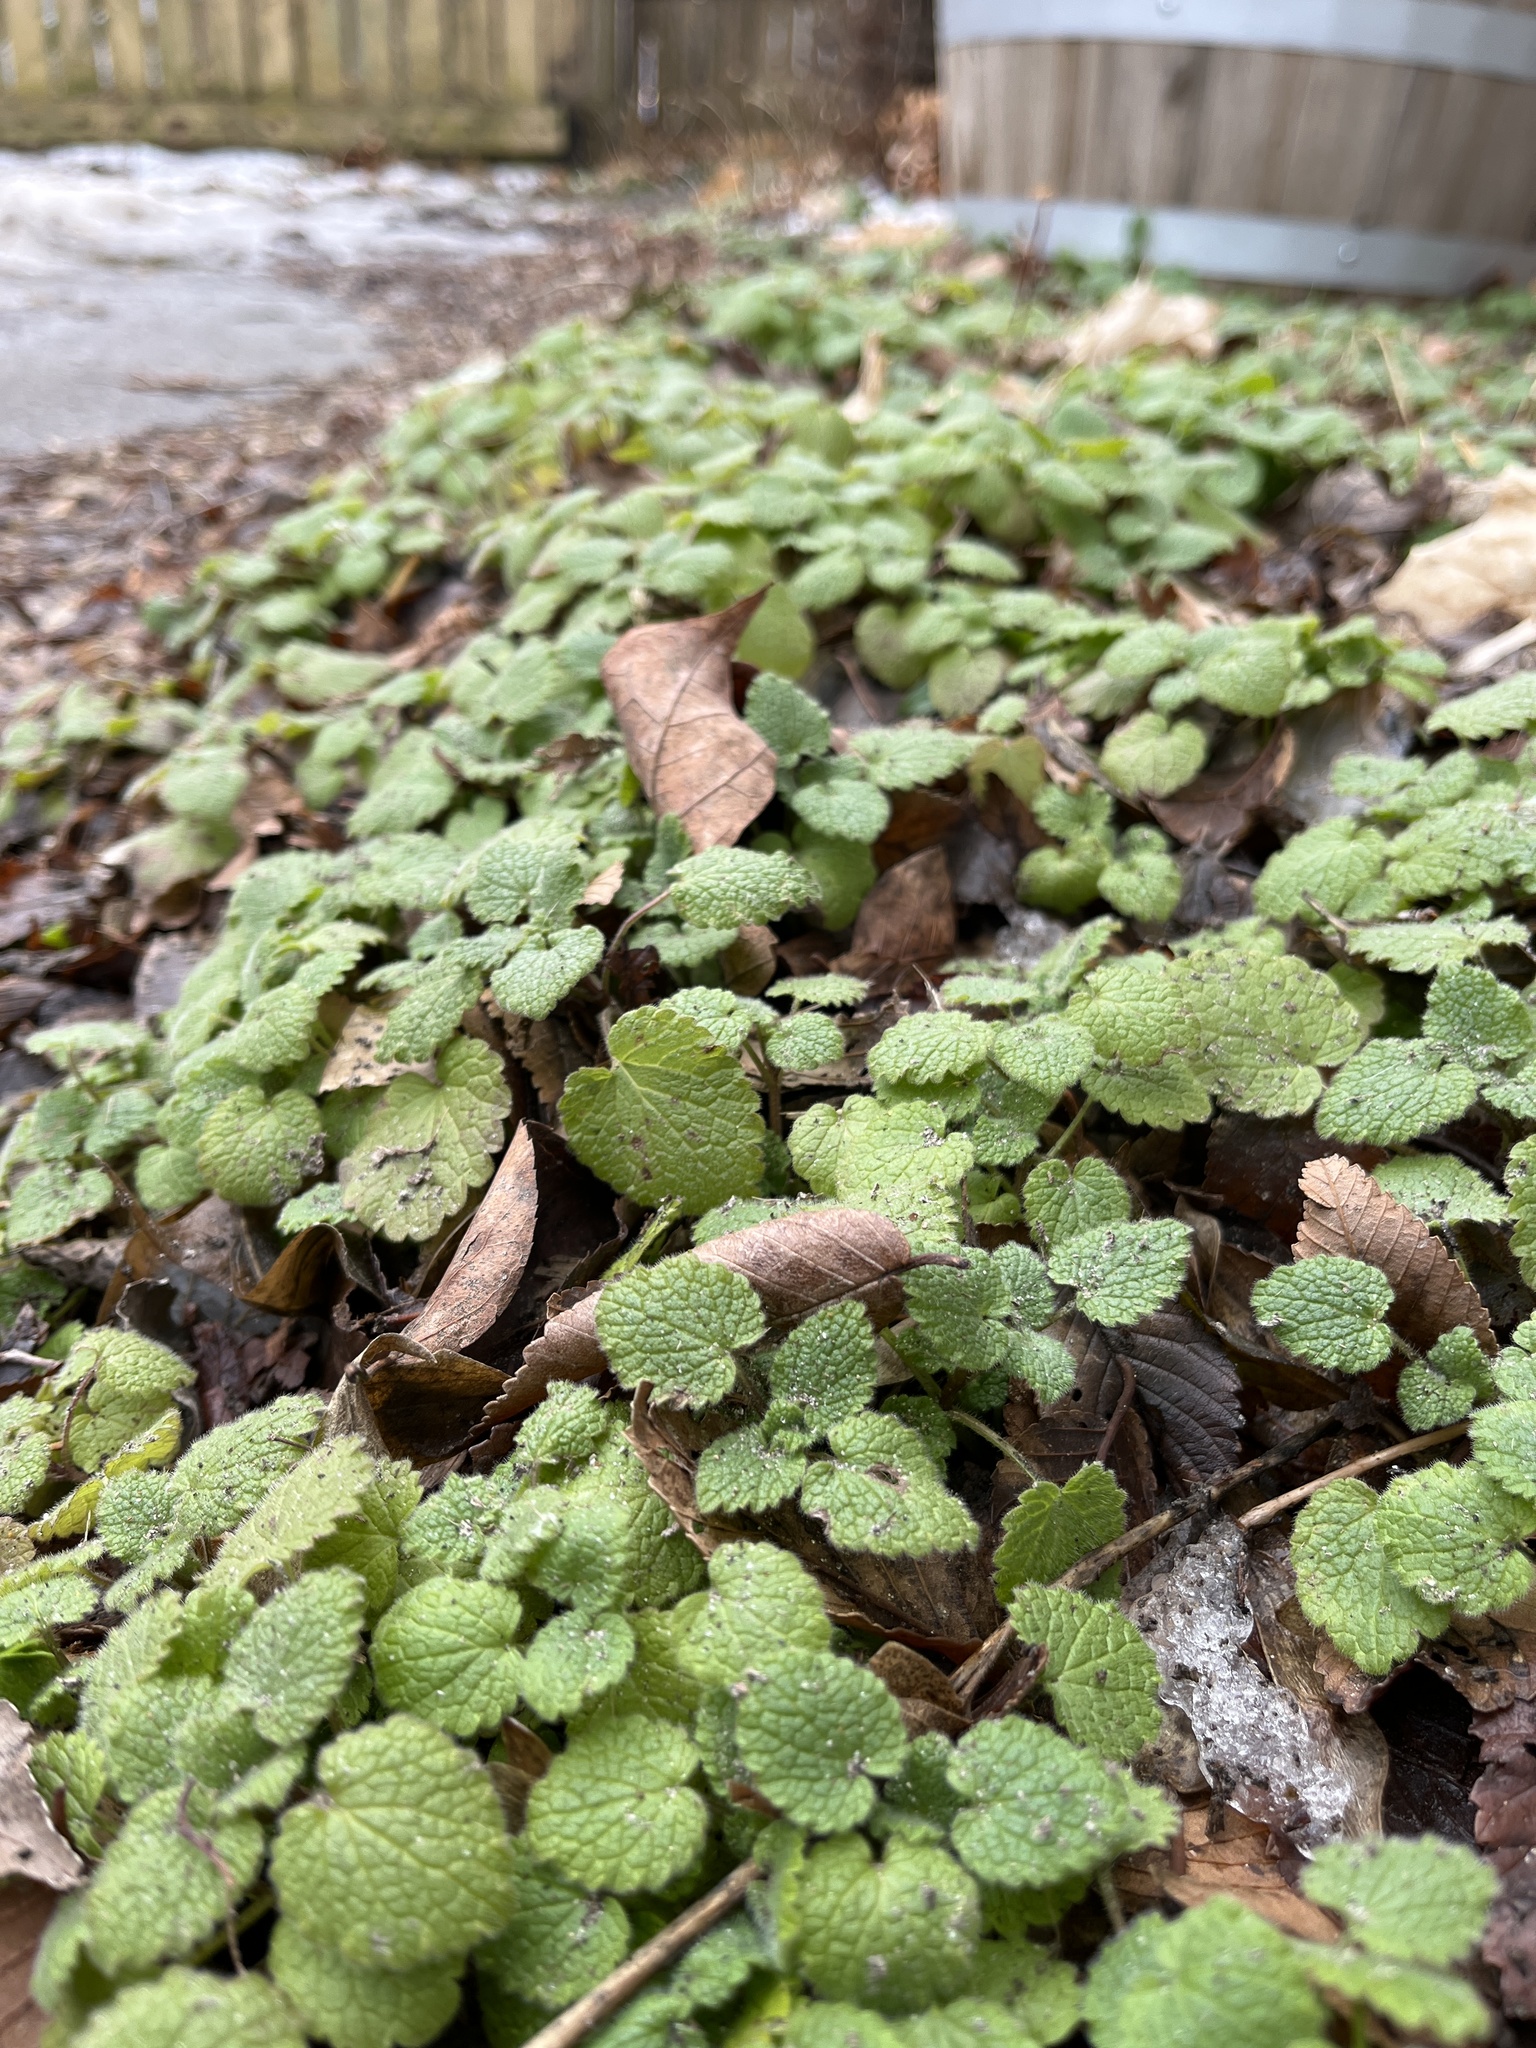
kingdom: Plantae
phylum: Tracheophyta
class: Magnoliopsida
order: Lamiales
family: Lamiaceae
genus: Lamium
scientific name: Lamium purpureum
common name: Red dead-nettle
